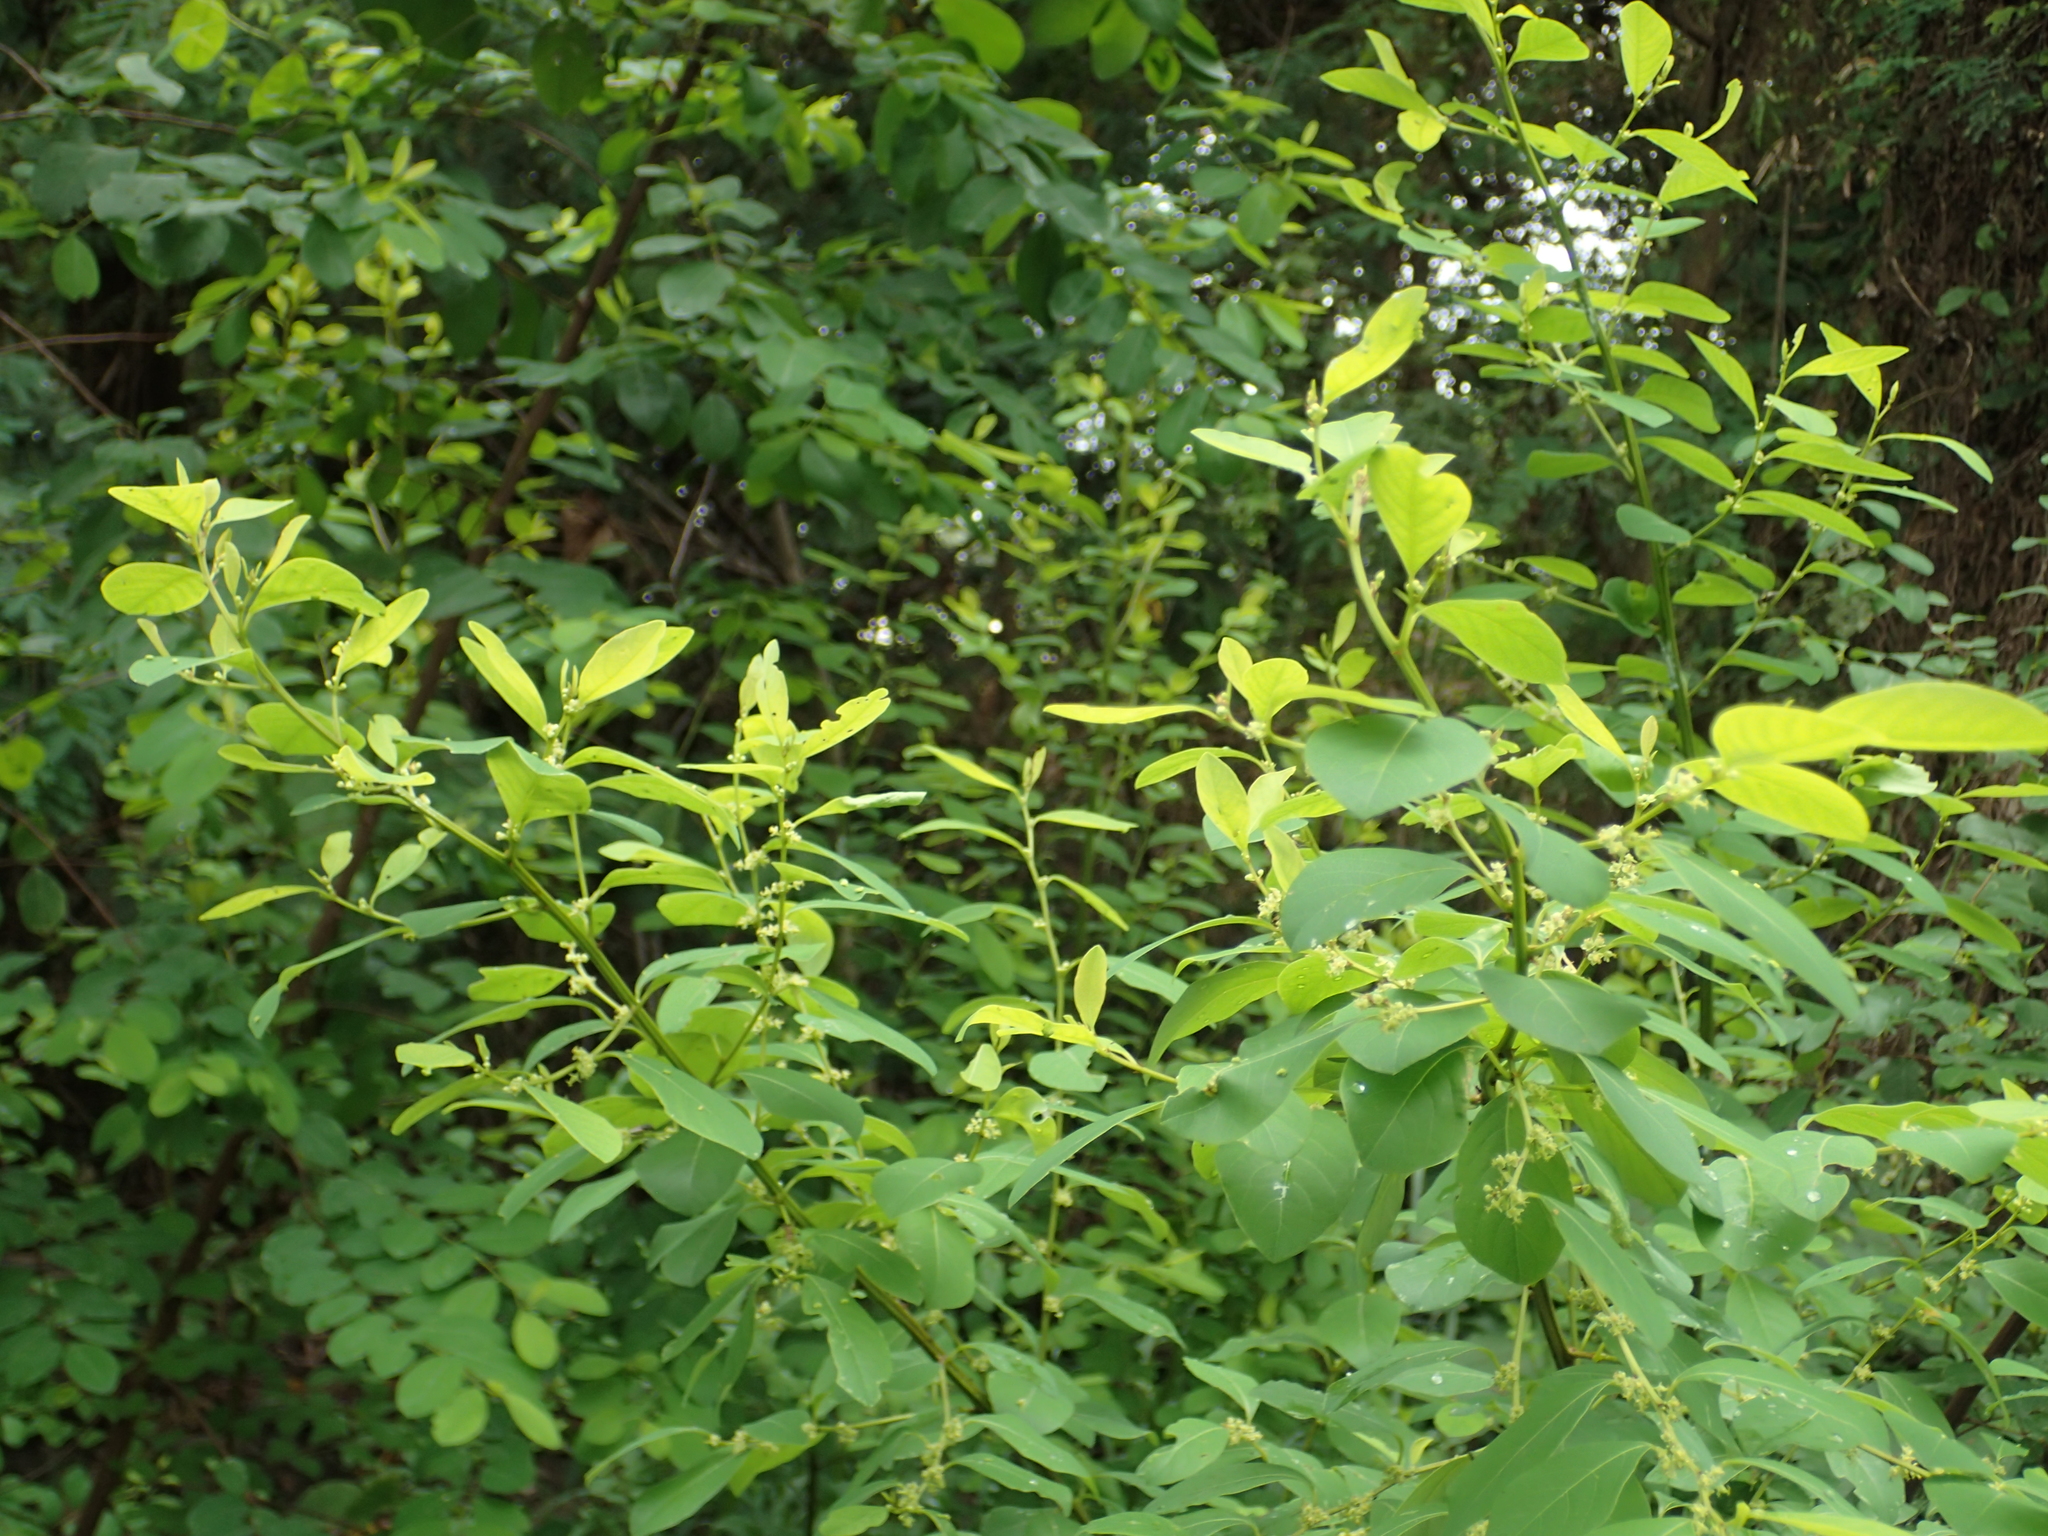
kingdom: Plantae
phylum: Tracheophyta
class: Magnoliopsida
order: Malpighiales
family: Phyllanthaceae
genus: Flueggea
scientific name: Flueggea virosa
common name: Common bushweed
